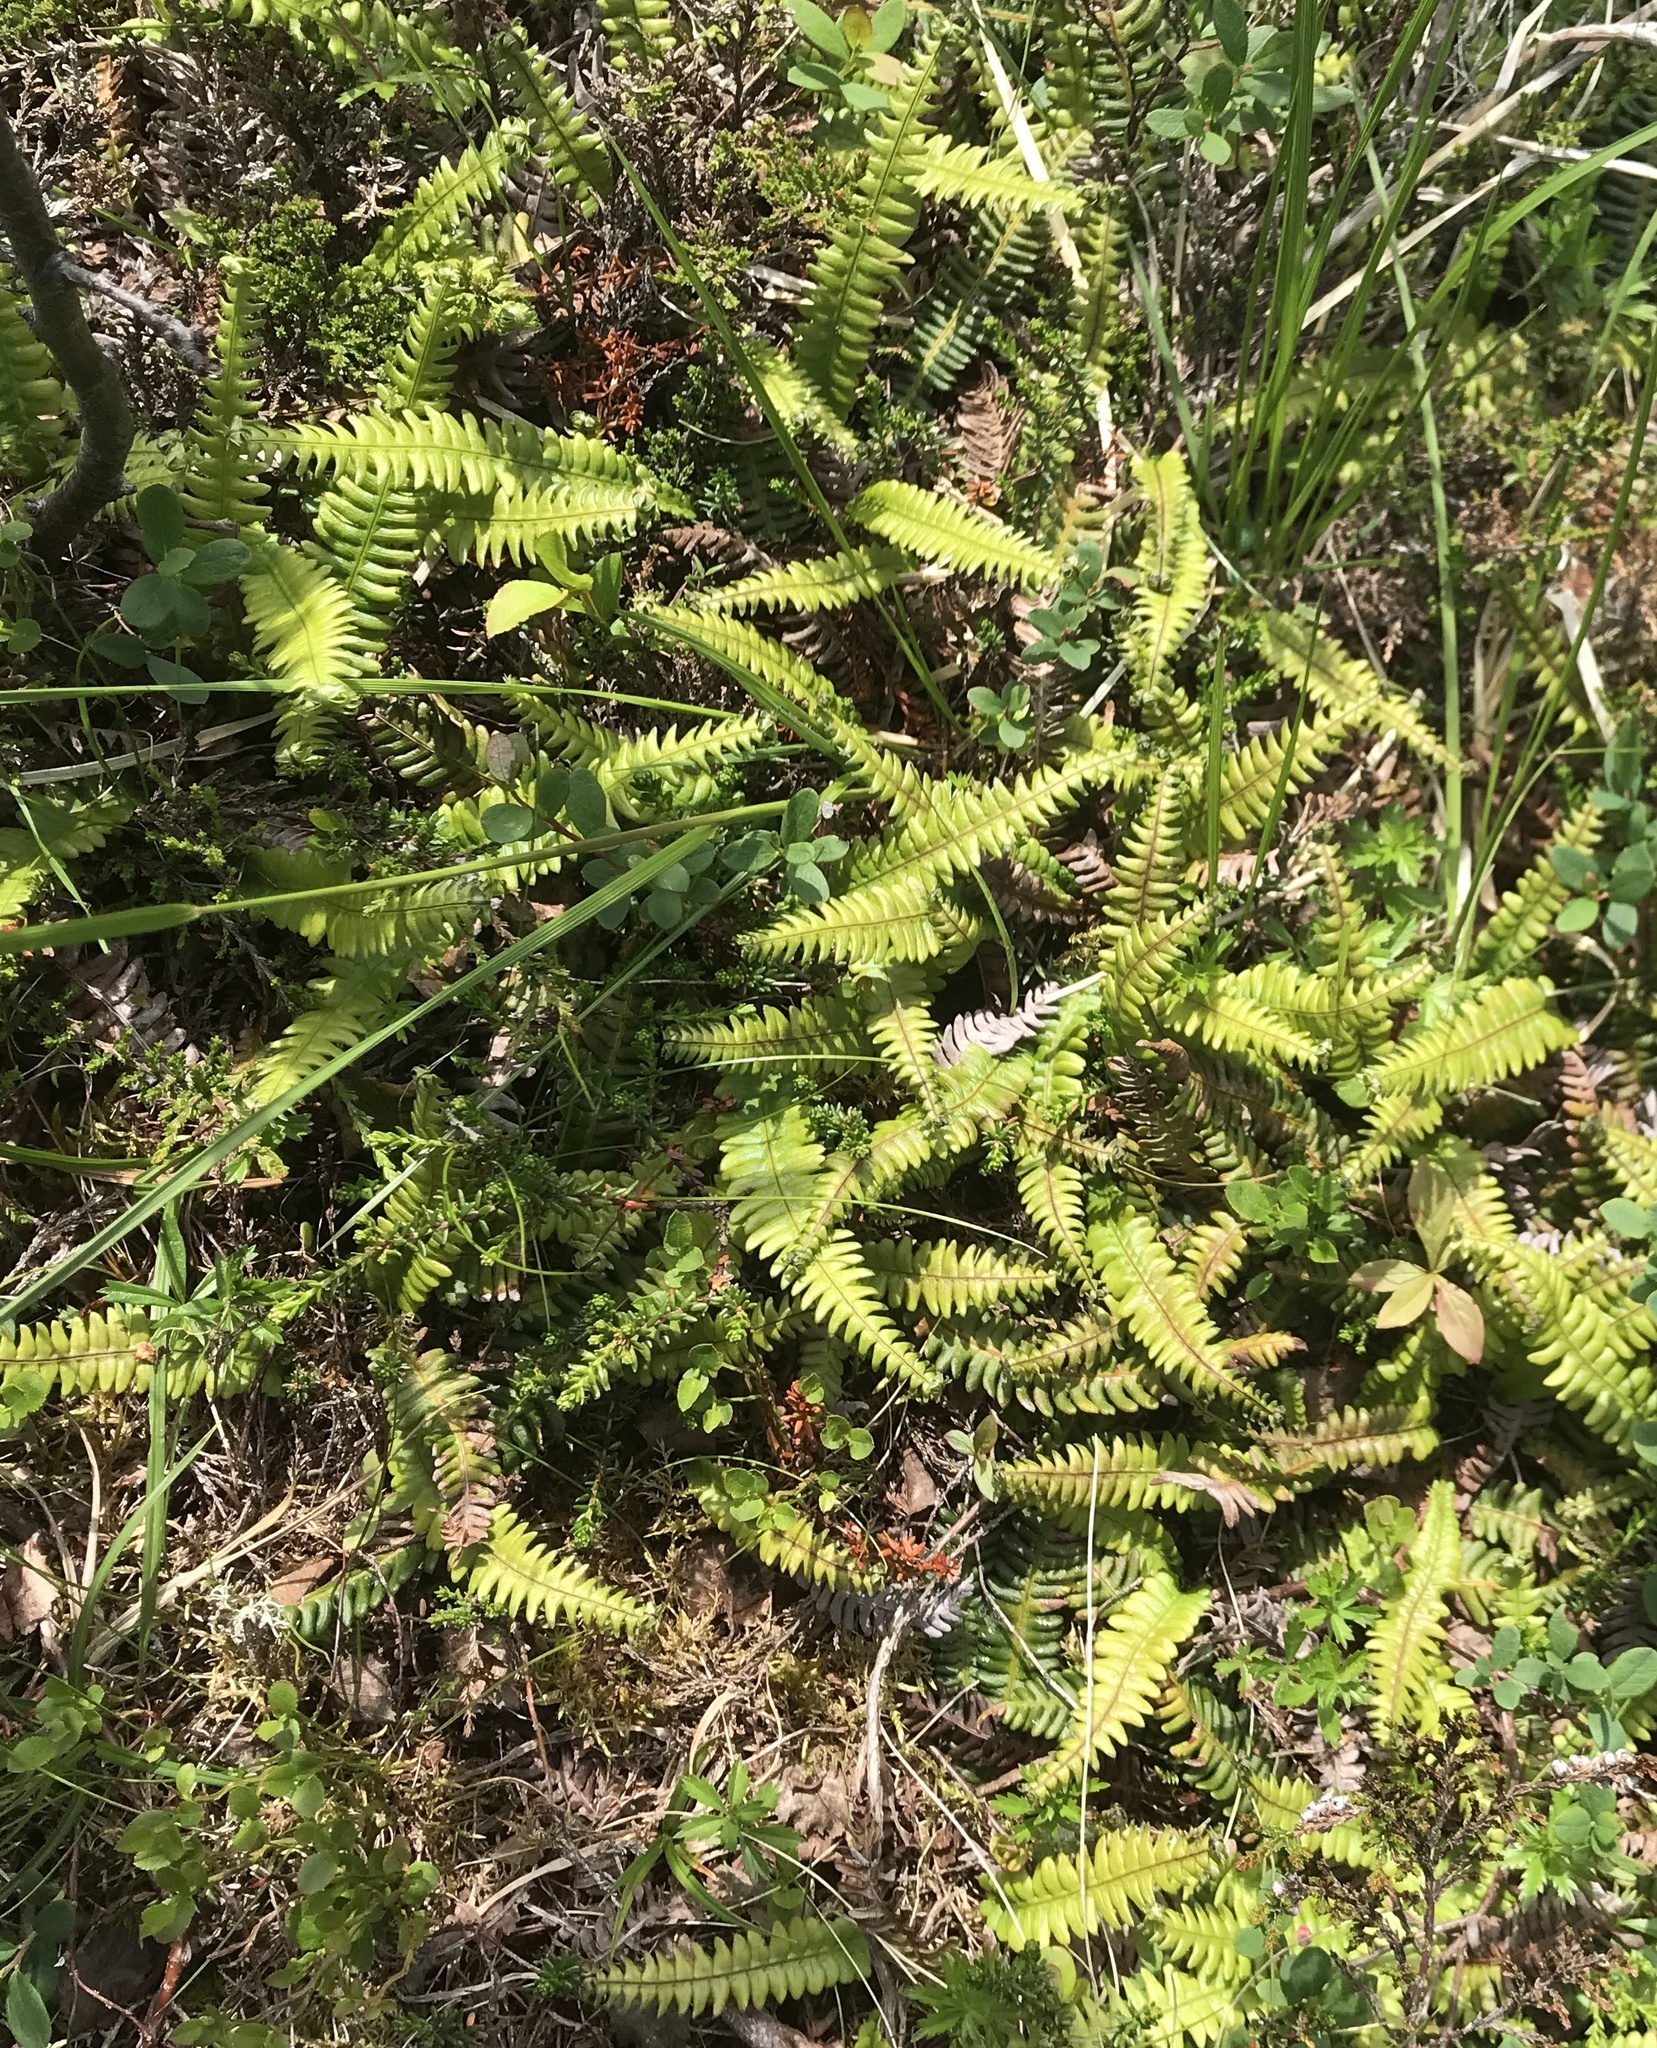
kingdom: Plantae
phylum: Tracheophyta
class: Polypodiopsida
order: Polypodiales
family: Blechnaceae
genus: Struthiopteris
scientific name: Struthiopteris spicant
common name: Deer fern
